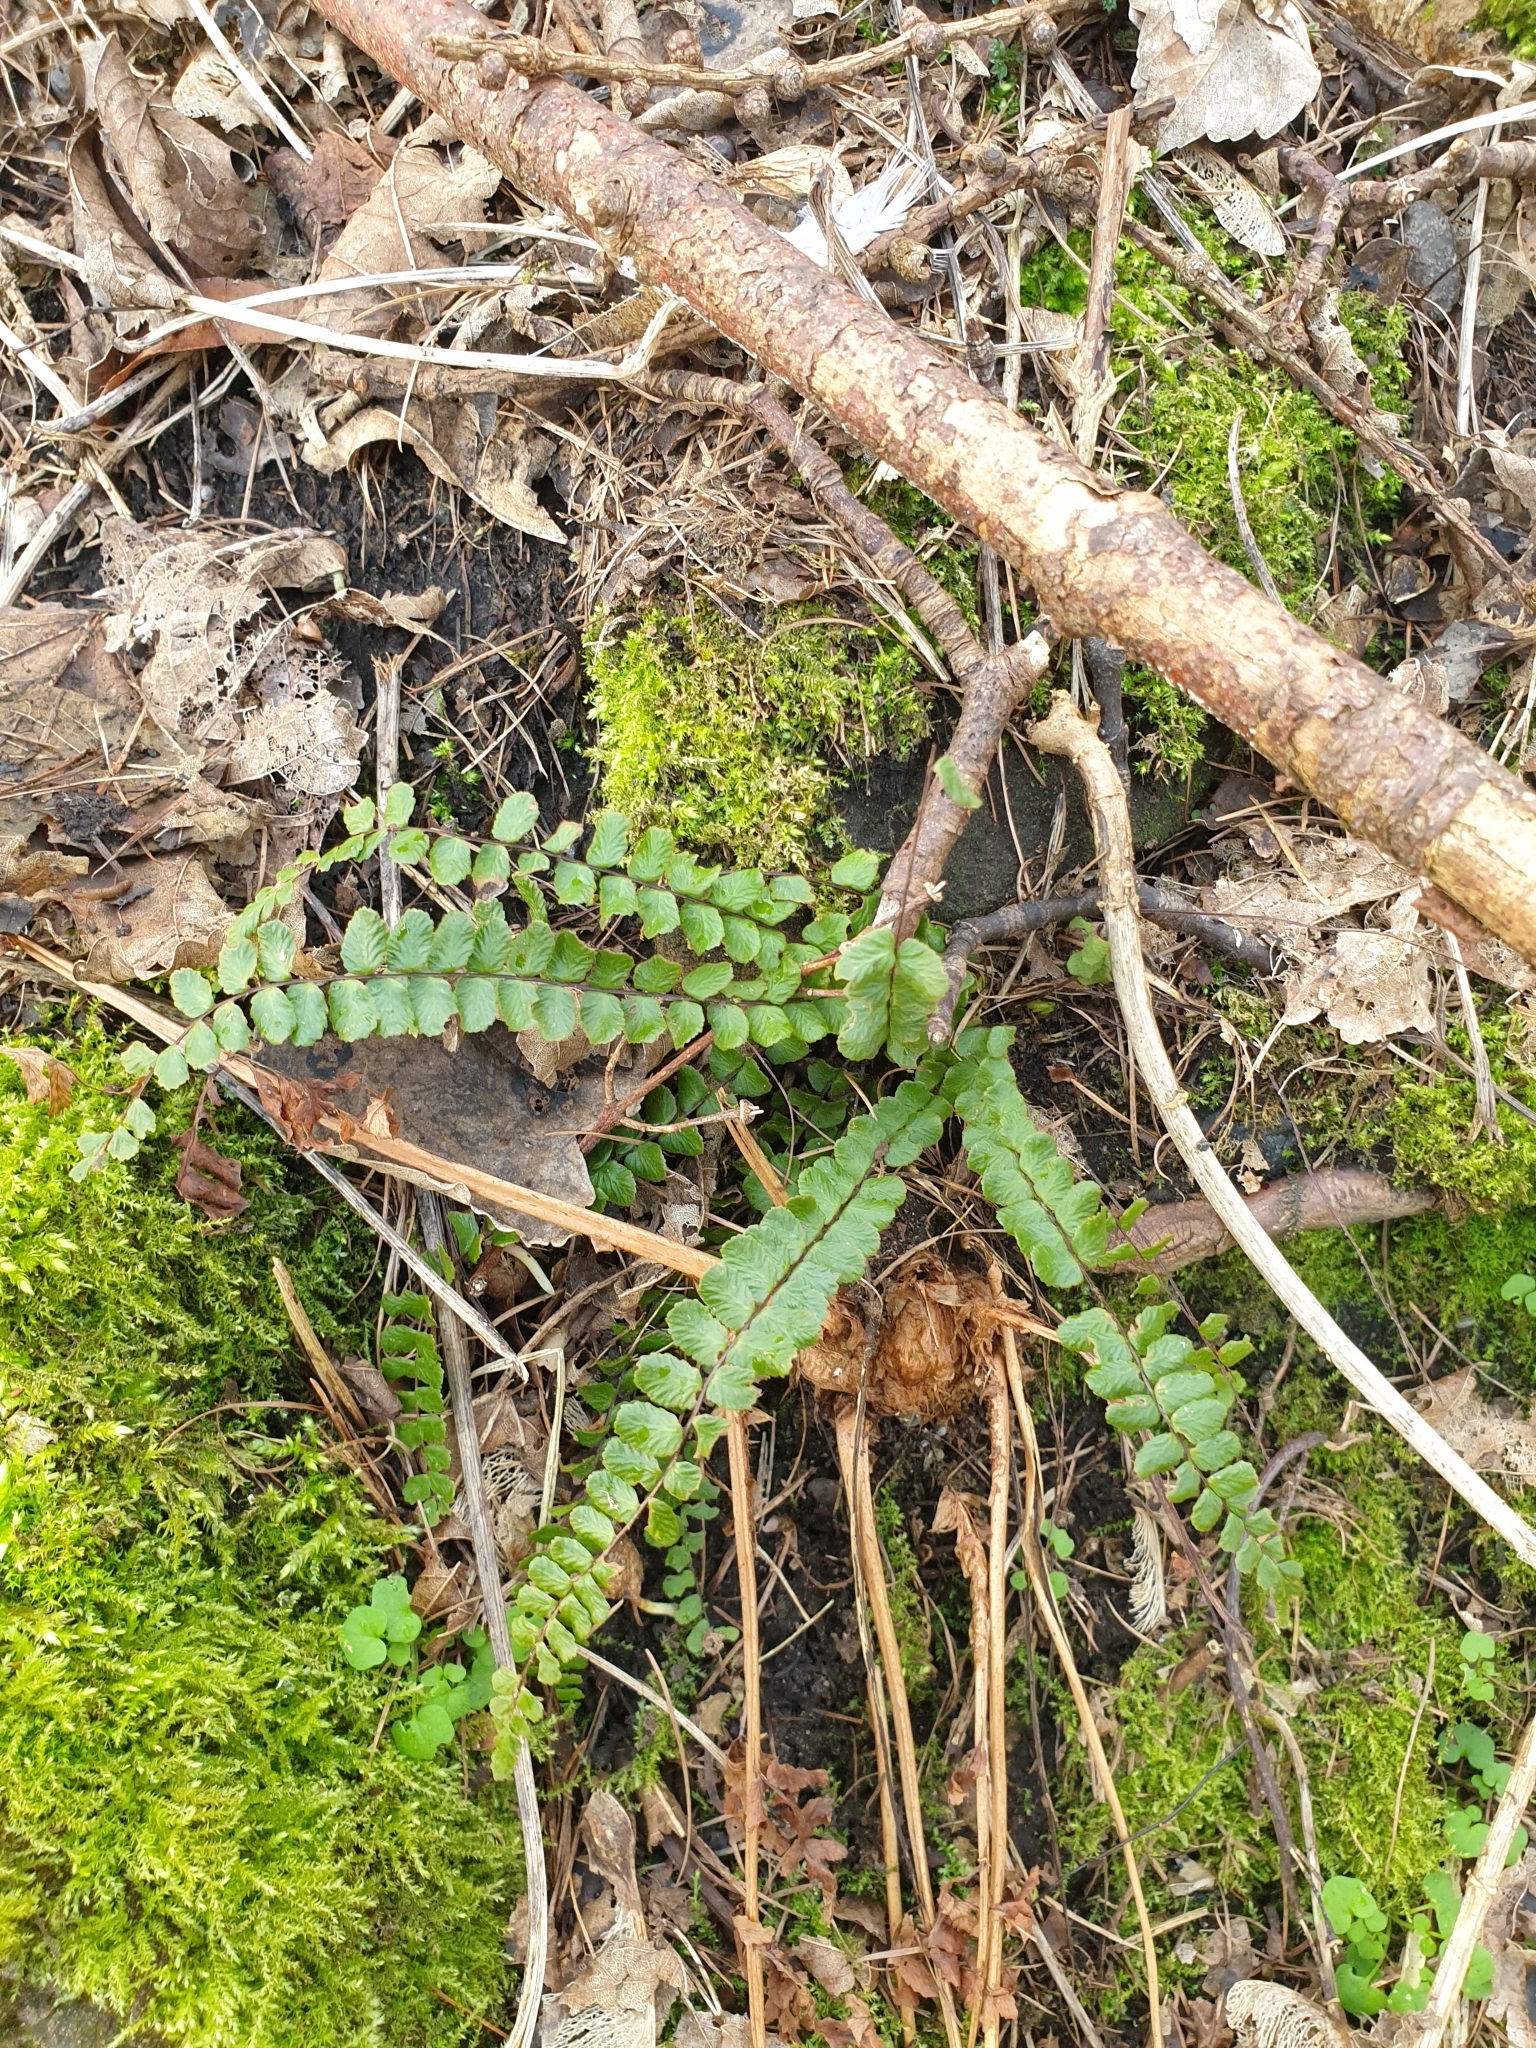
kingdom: Plantae
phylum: Tracheophyta
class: Polypodiopsida
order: Polypodiales
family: Aspleniaceae
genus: Asplenium
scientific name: Asplenium trichomanes
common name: Maidenhair spleenwort
